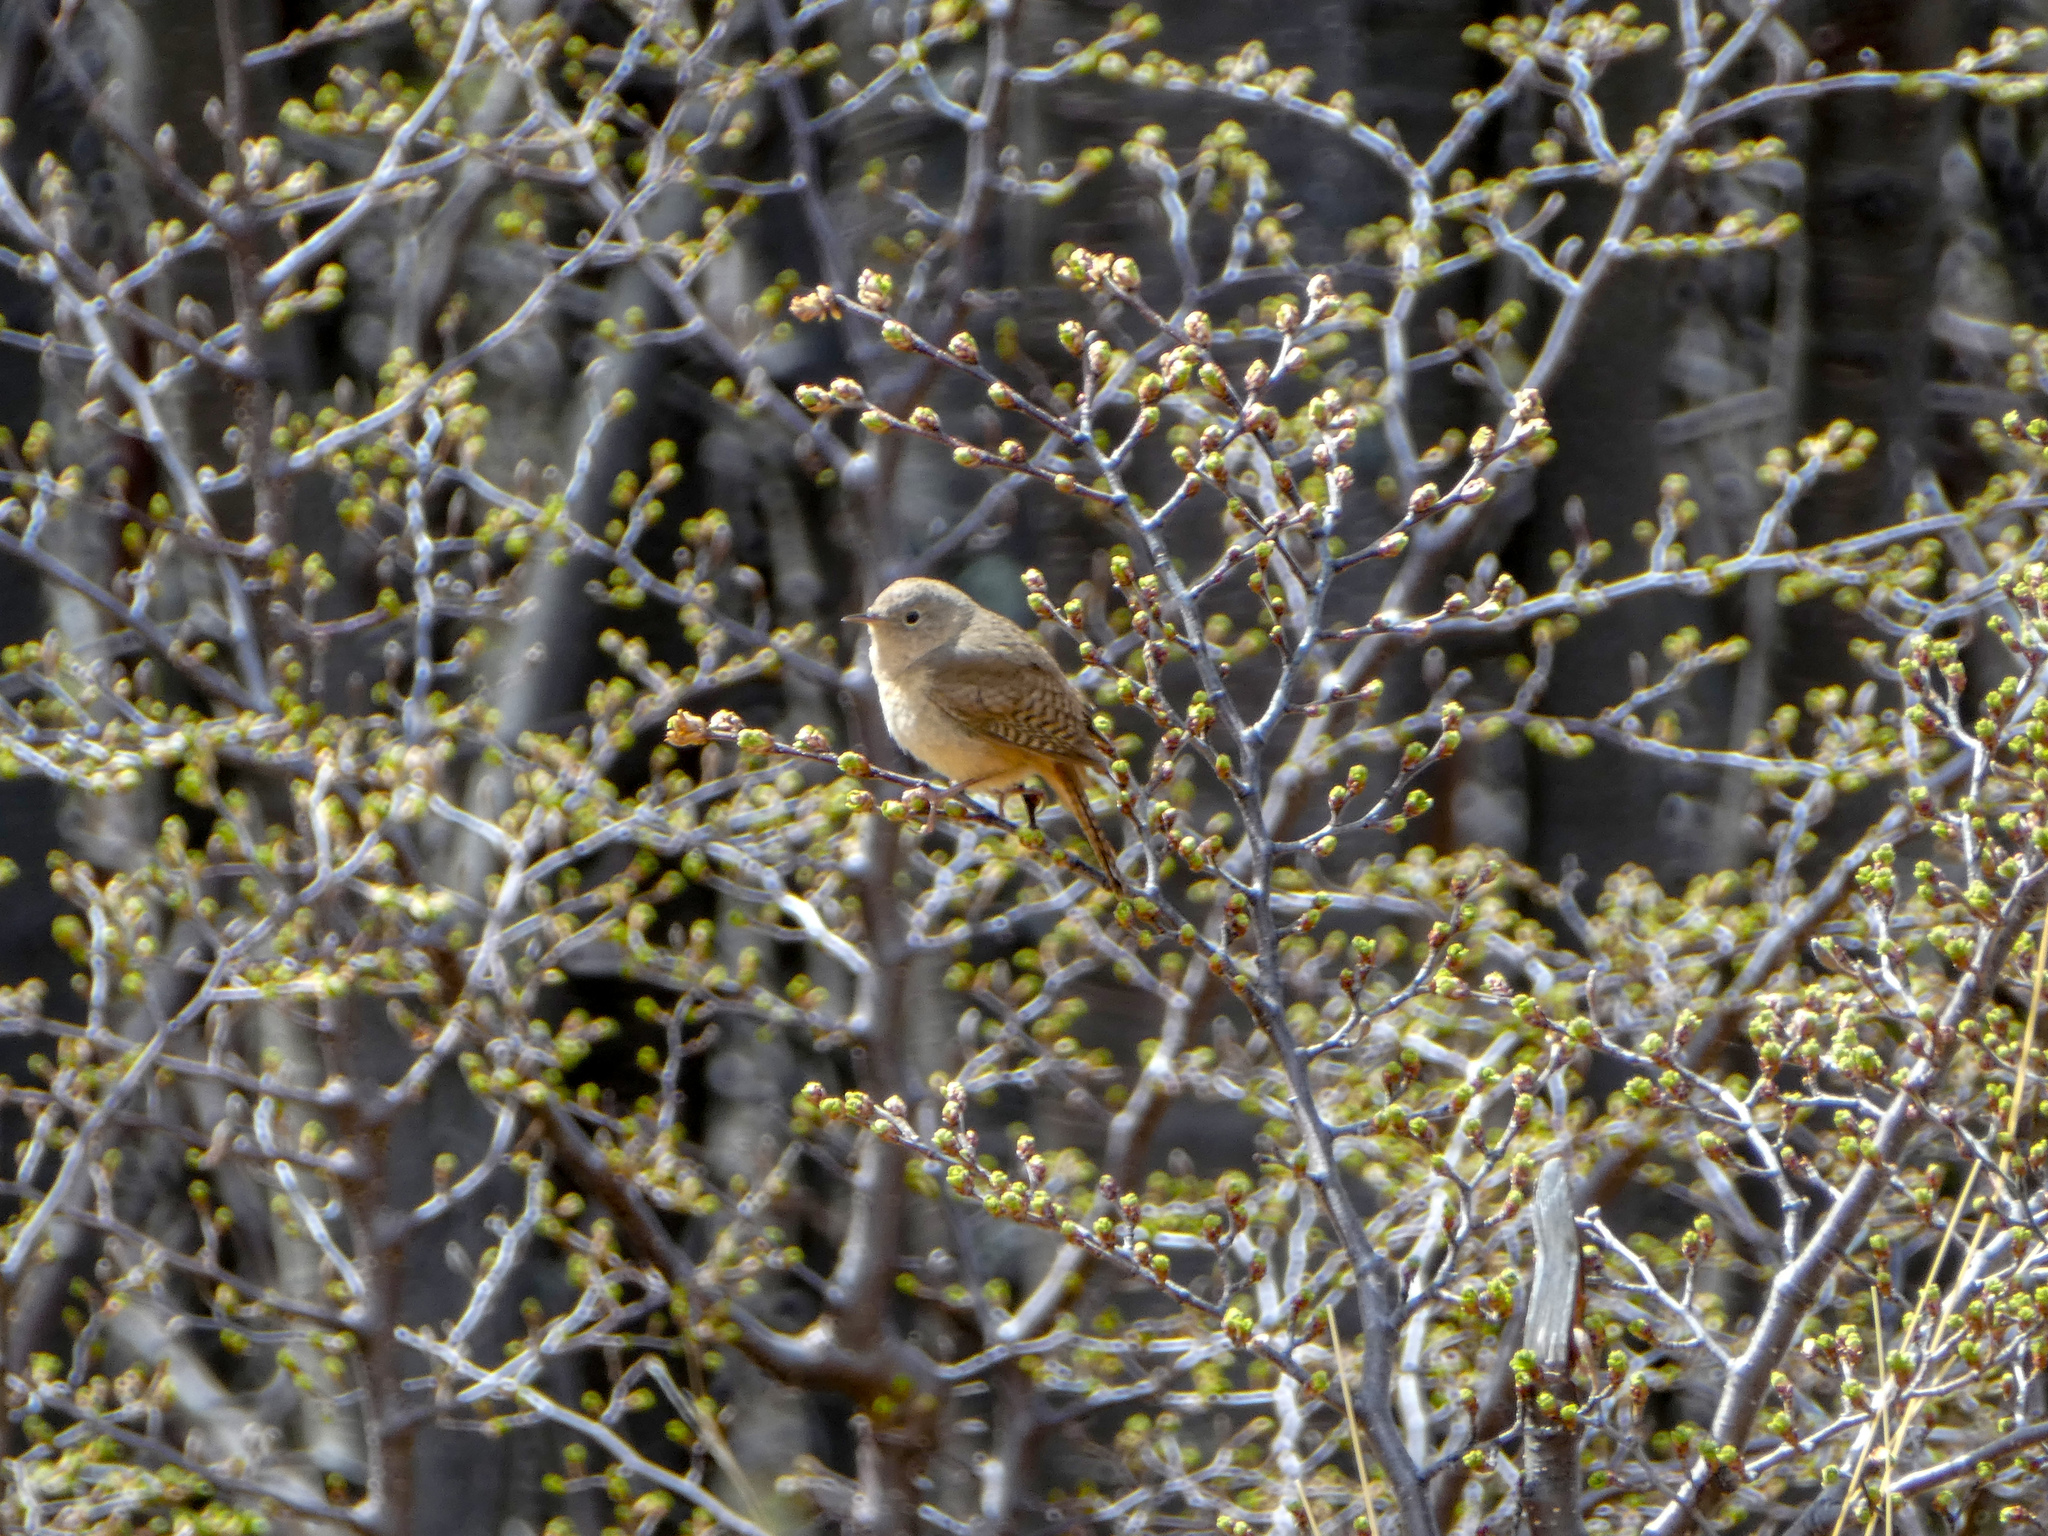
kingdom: Animalia
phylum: Chordata
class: Aves
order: Passeriformes
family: Troglodytidae
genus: Troglodytes
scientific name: Troglodytes aedon
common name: House wren
